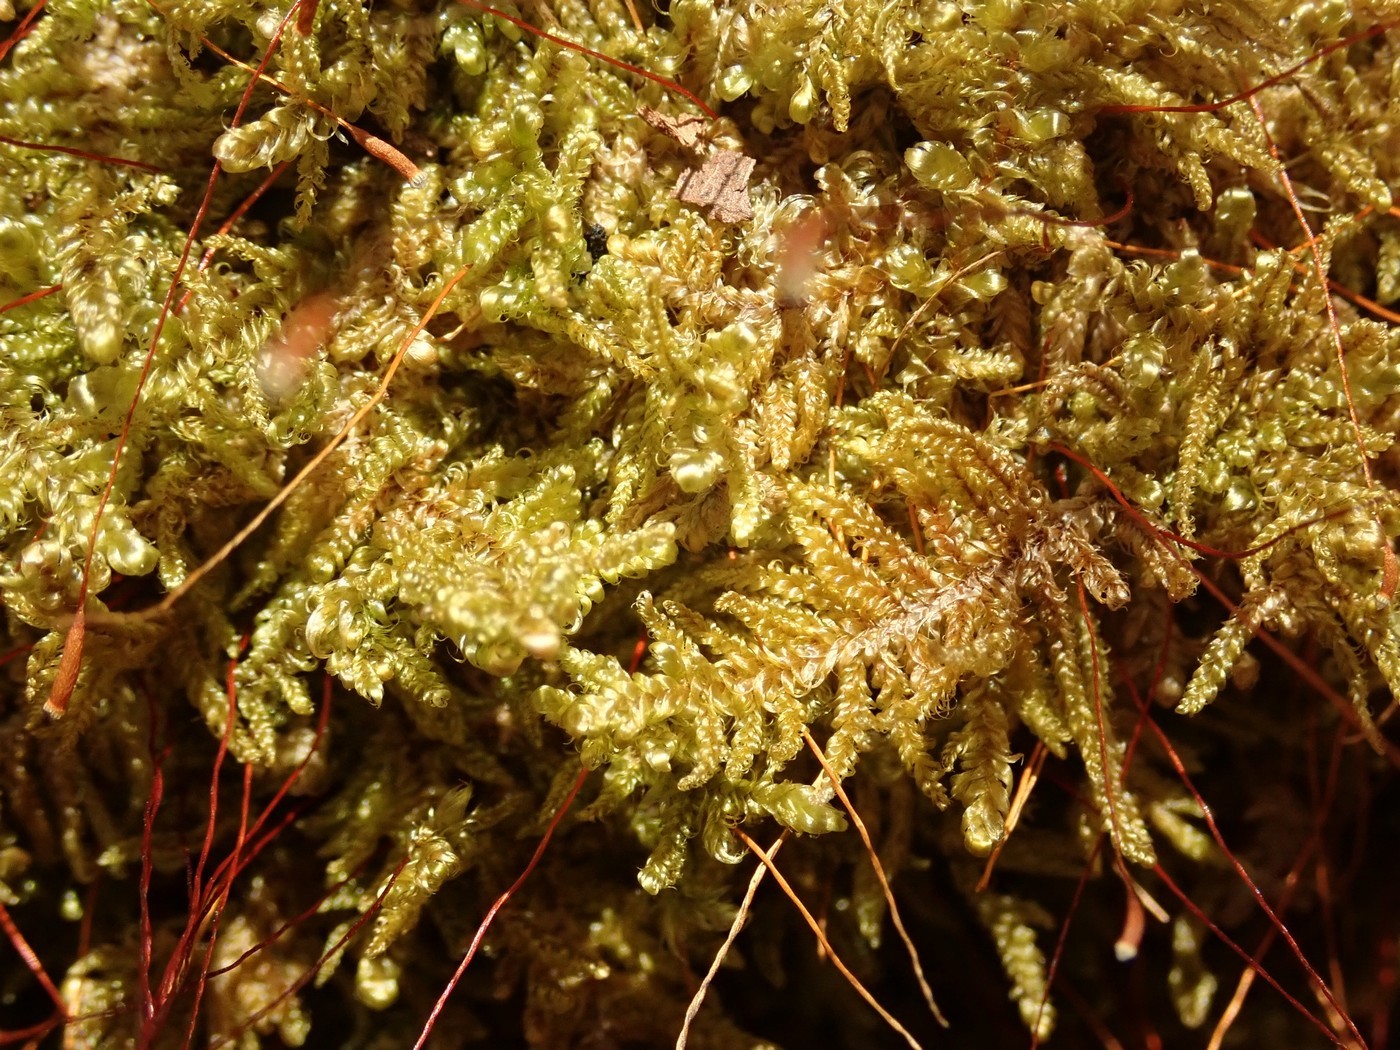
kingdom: Plantae
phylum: Bryophyta
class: Bryopsida
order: Hypnales
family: Callicladiaceae
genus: Callicladium
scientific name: Callicladium imponens
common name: Brocade moss
